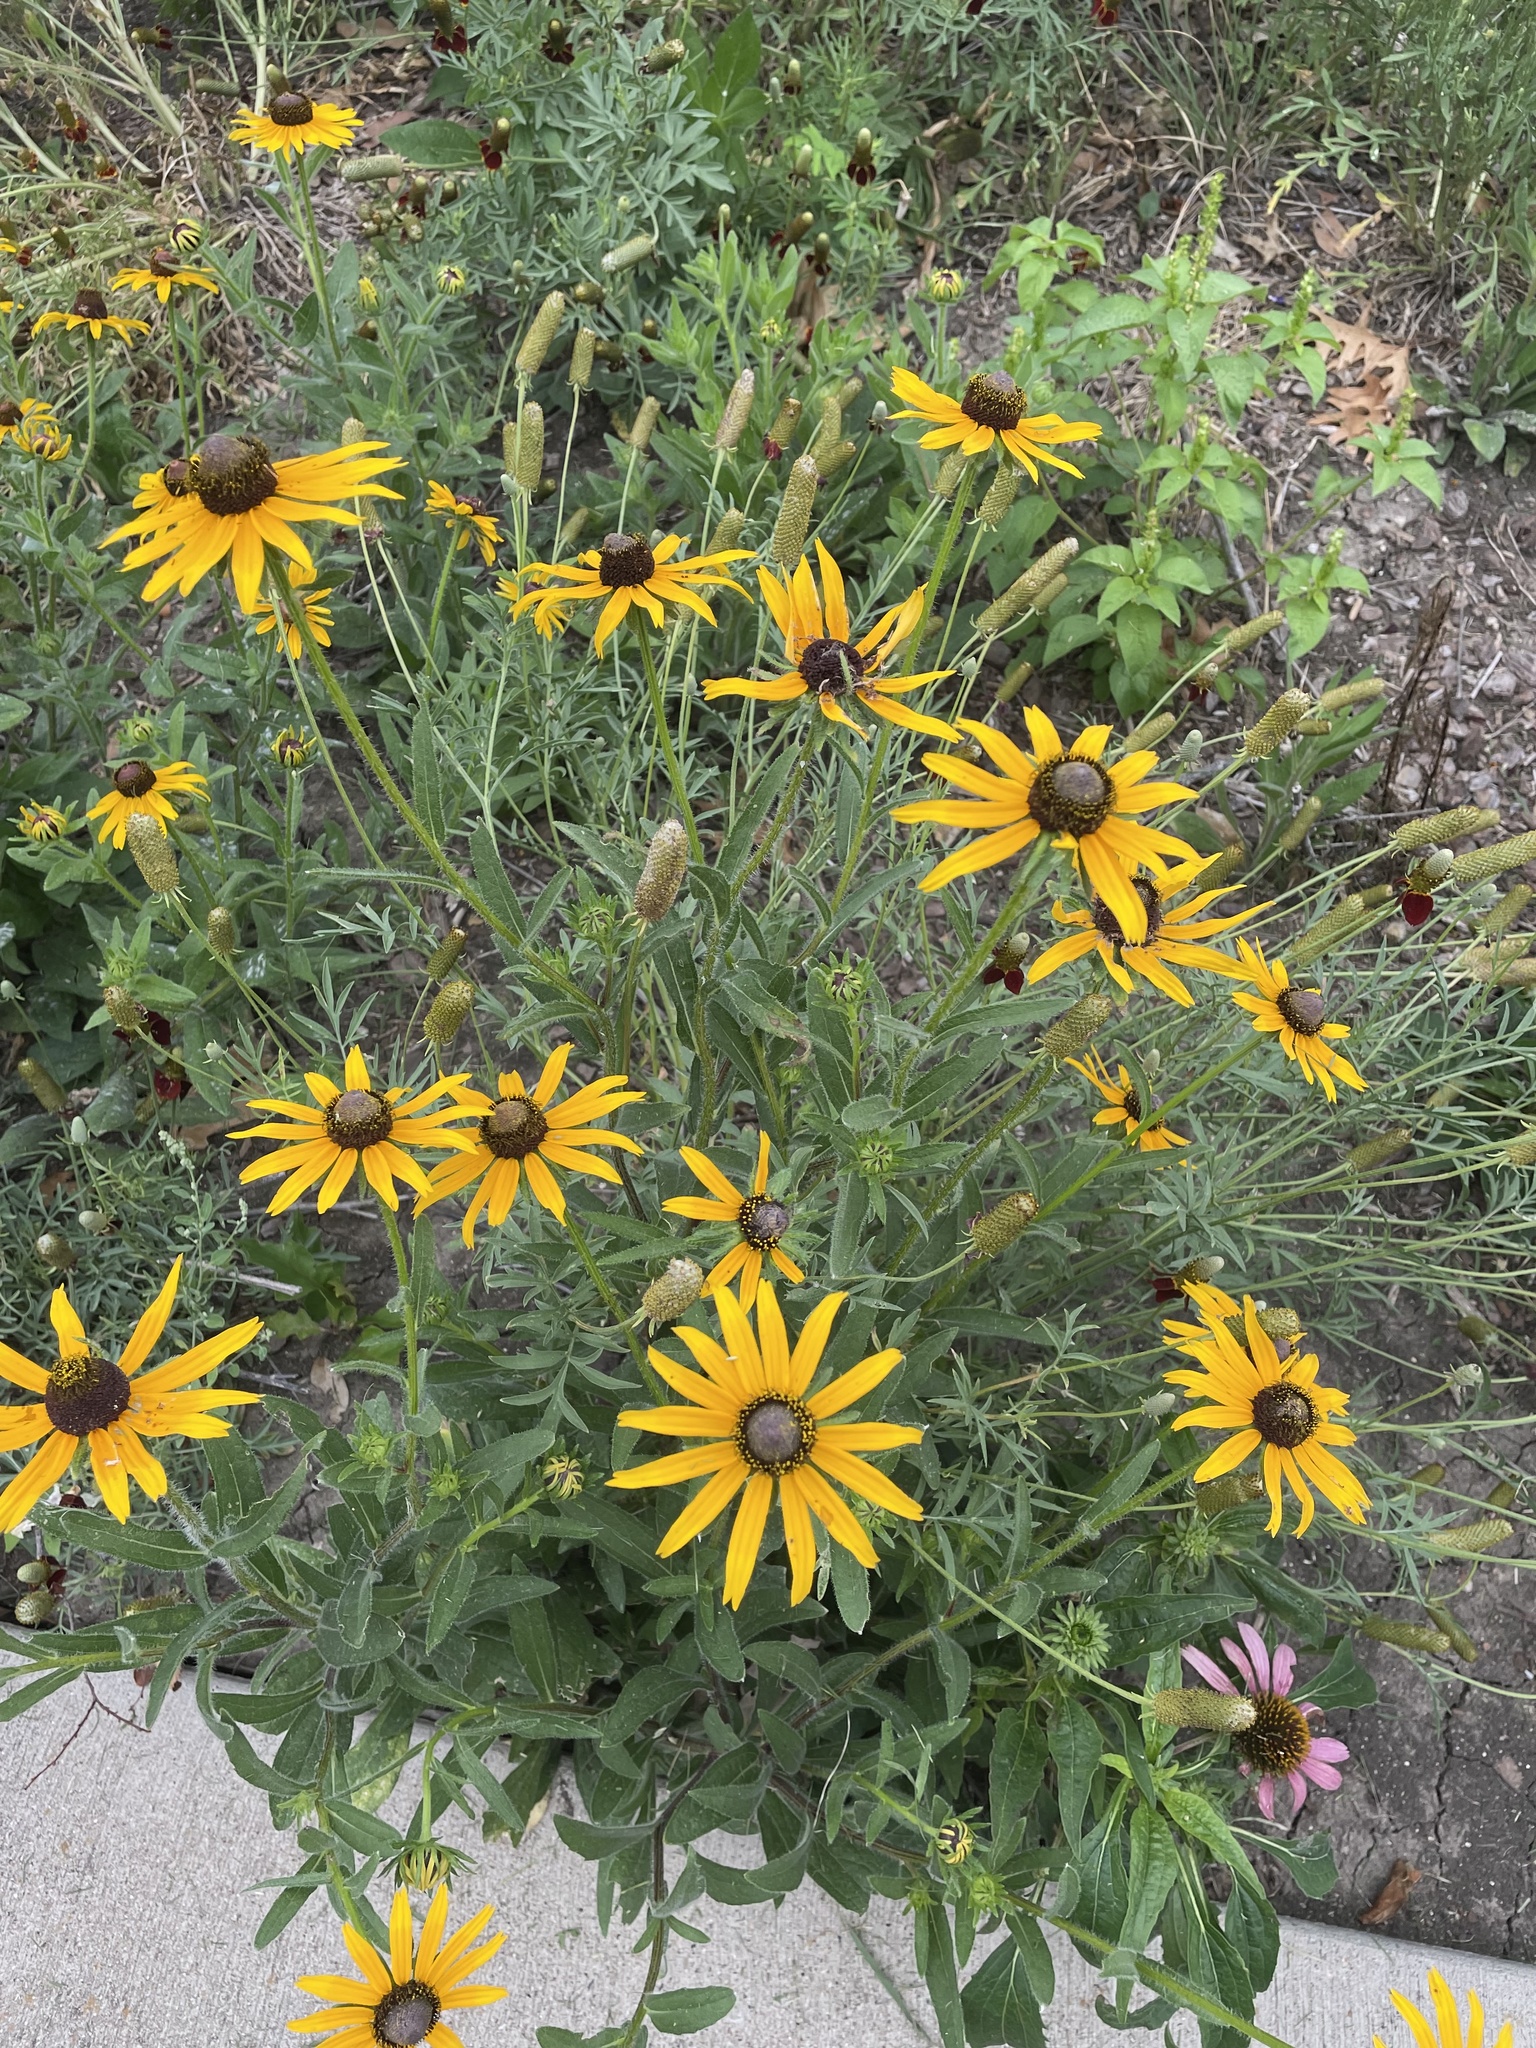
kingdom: Plantae
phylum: Tracheophyta
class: Magnoliopsida
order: Asterales
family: Asteraceae
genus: Rudbeckia
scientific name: Rudbeckia hirta
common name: Black-eyed-susan
